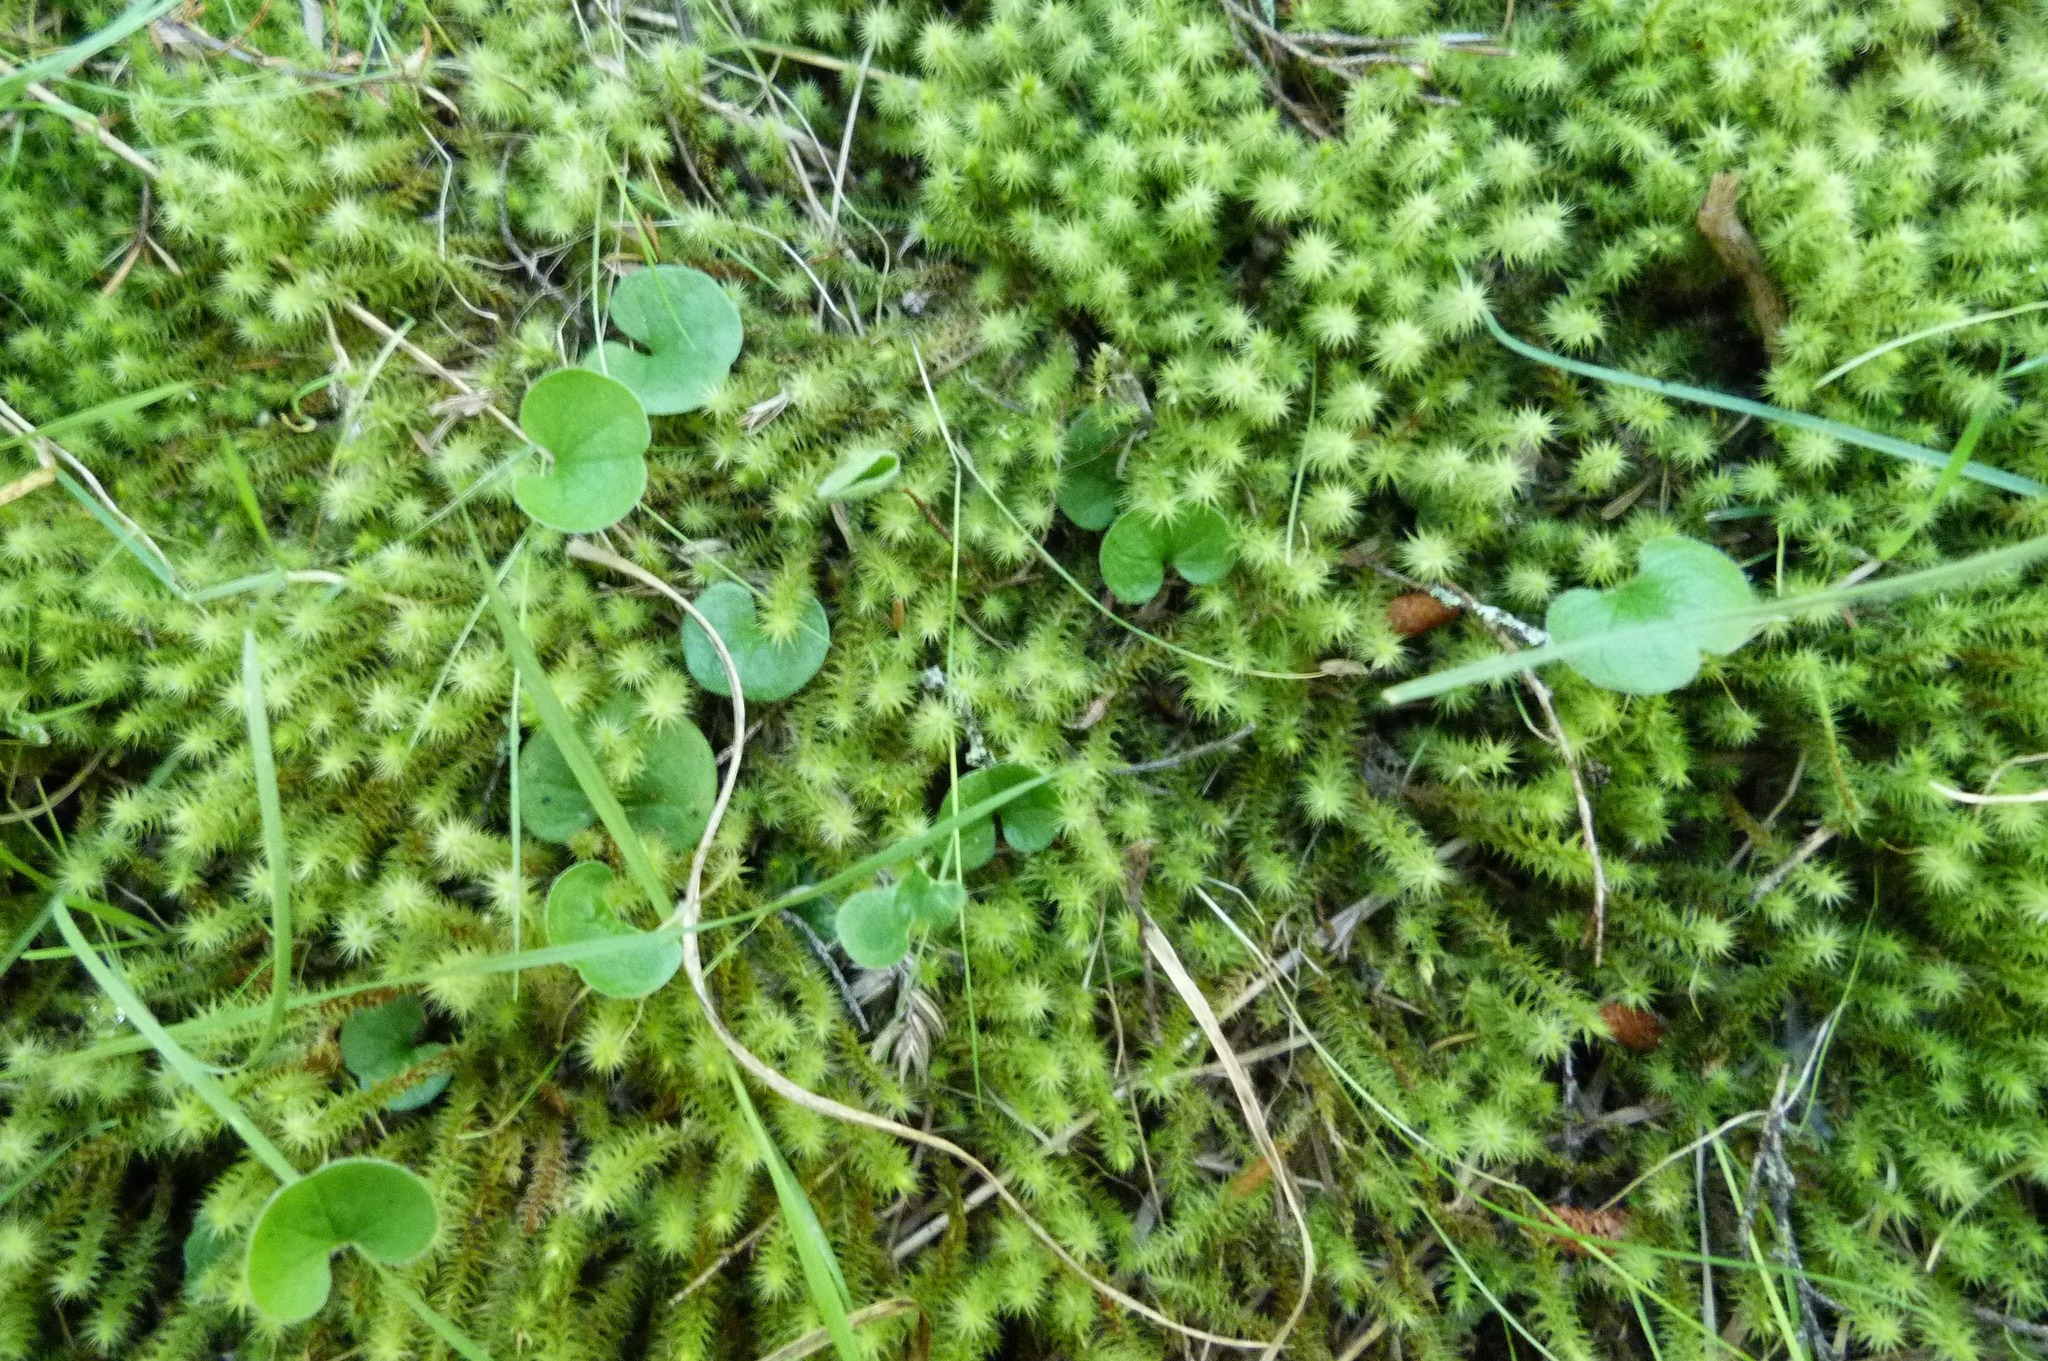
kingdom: Plantae
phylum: Tracheophyta
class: Magnoliopsida
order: Solanales
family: Convolvulaceae
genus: Dichondra
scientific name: Dichondra repens
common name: Kidneyweed
